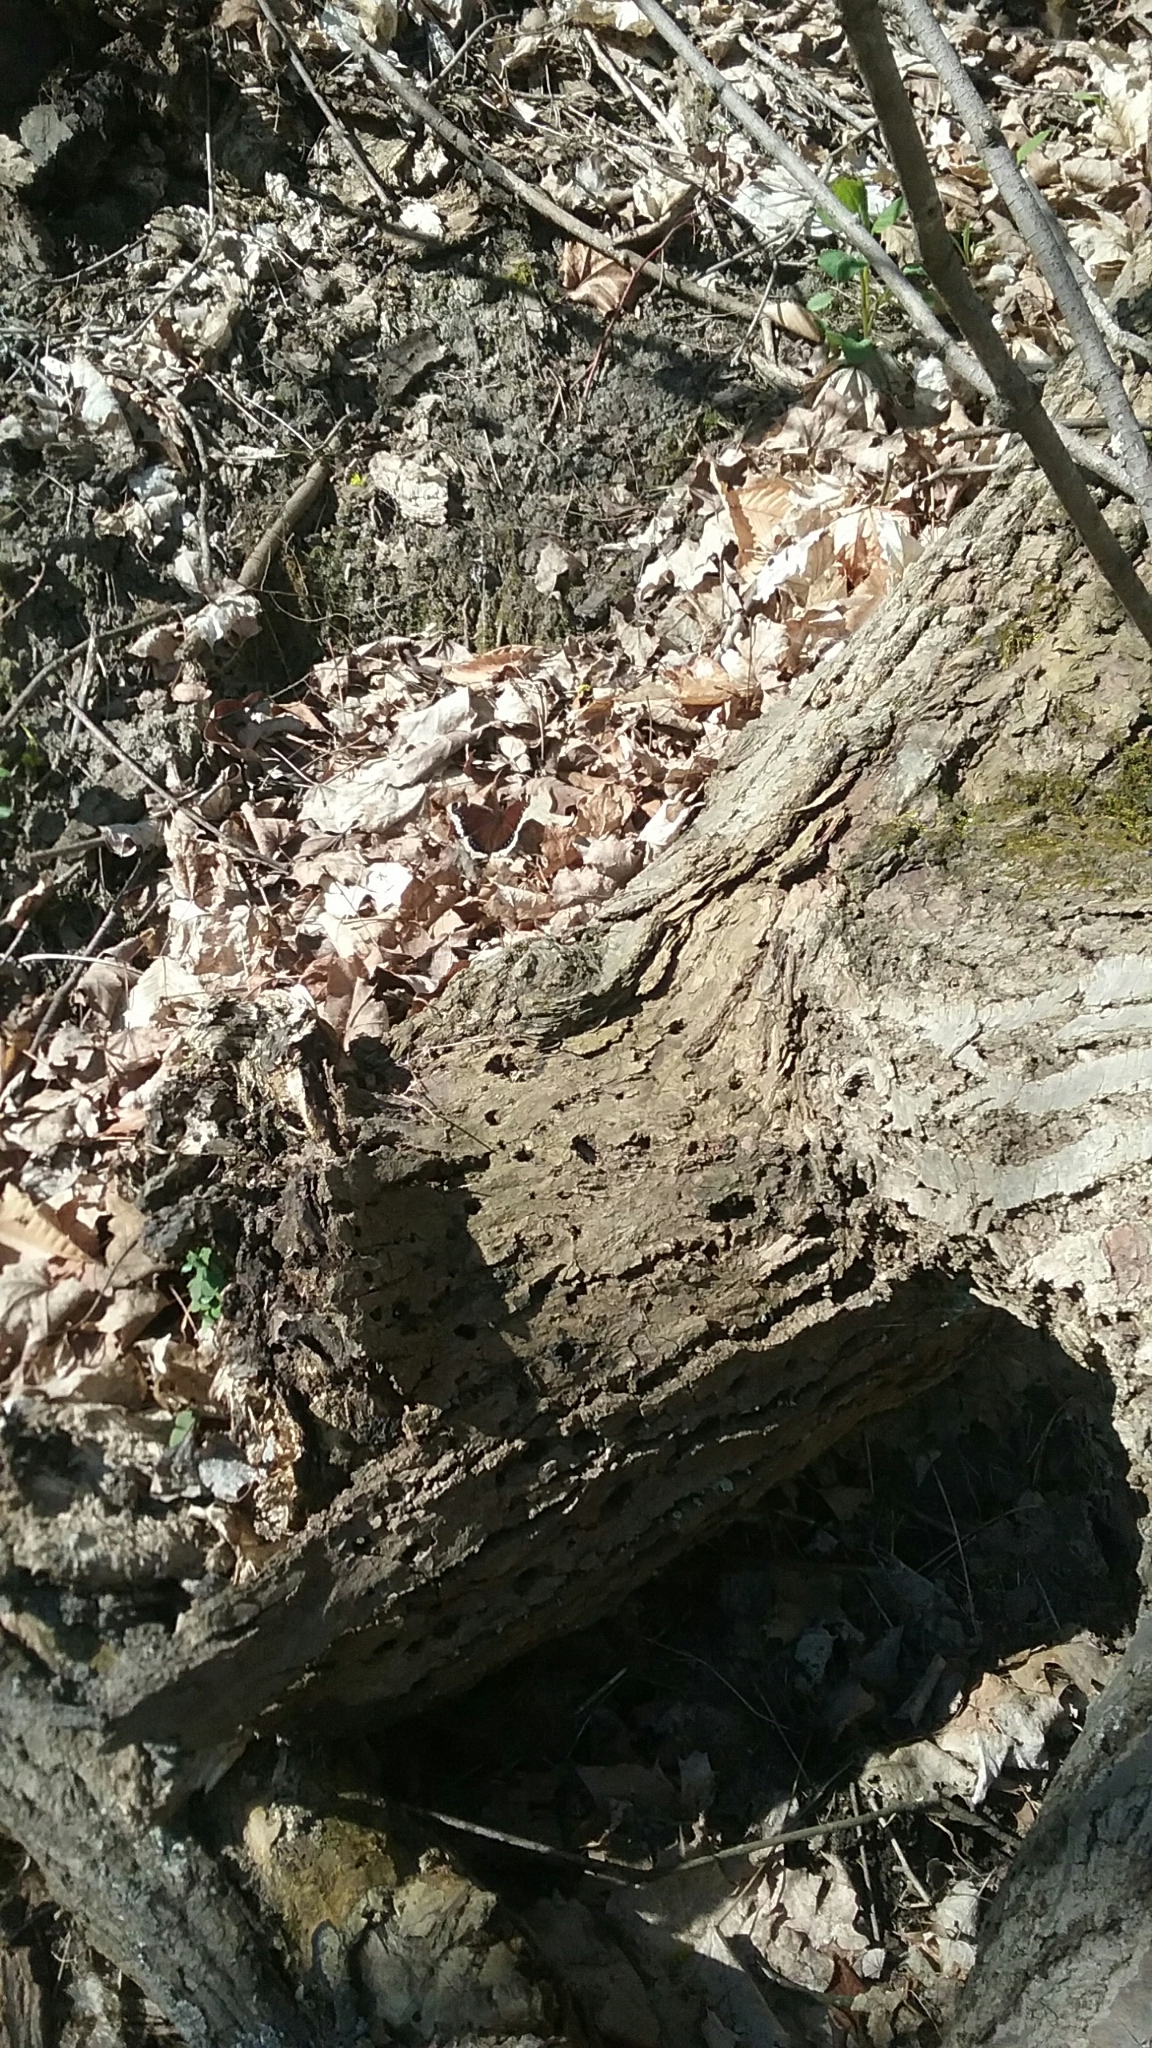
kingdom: Animalia
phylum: Arthropoda
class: Insecta
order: Lepidoptera
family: Nymphalidae
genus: Nymphalis
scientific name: Nymphalis antiopa
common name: Camberwell beauty
